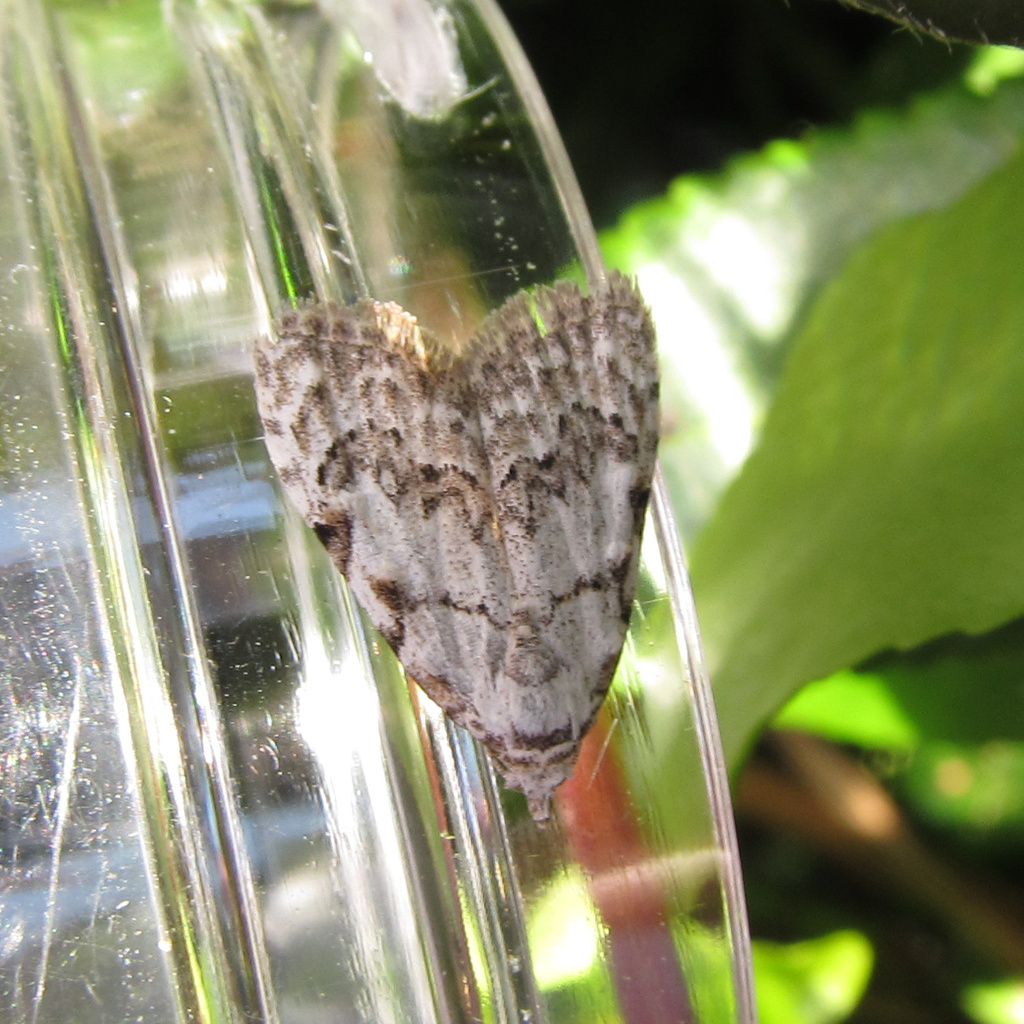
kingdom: Animalia
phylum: Arthropoda
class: Insecta
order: Lepidoptera
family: Nolidae
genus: Nola
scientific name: Nola confusalis
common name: Least black arches
